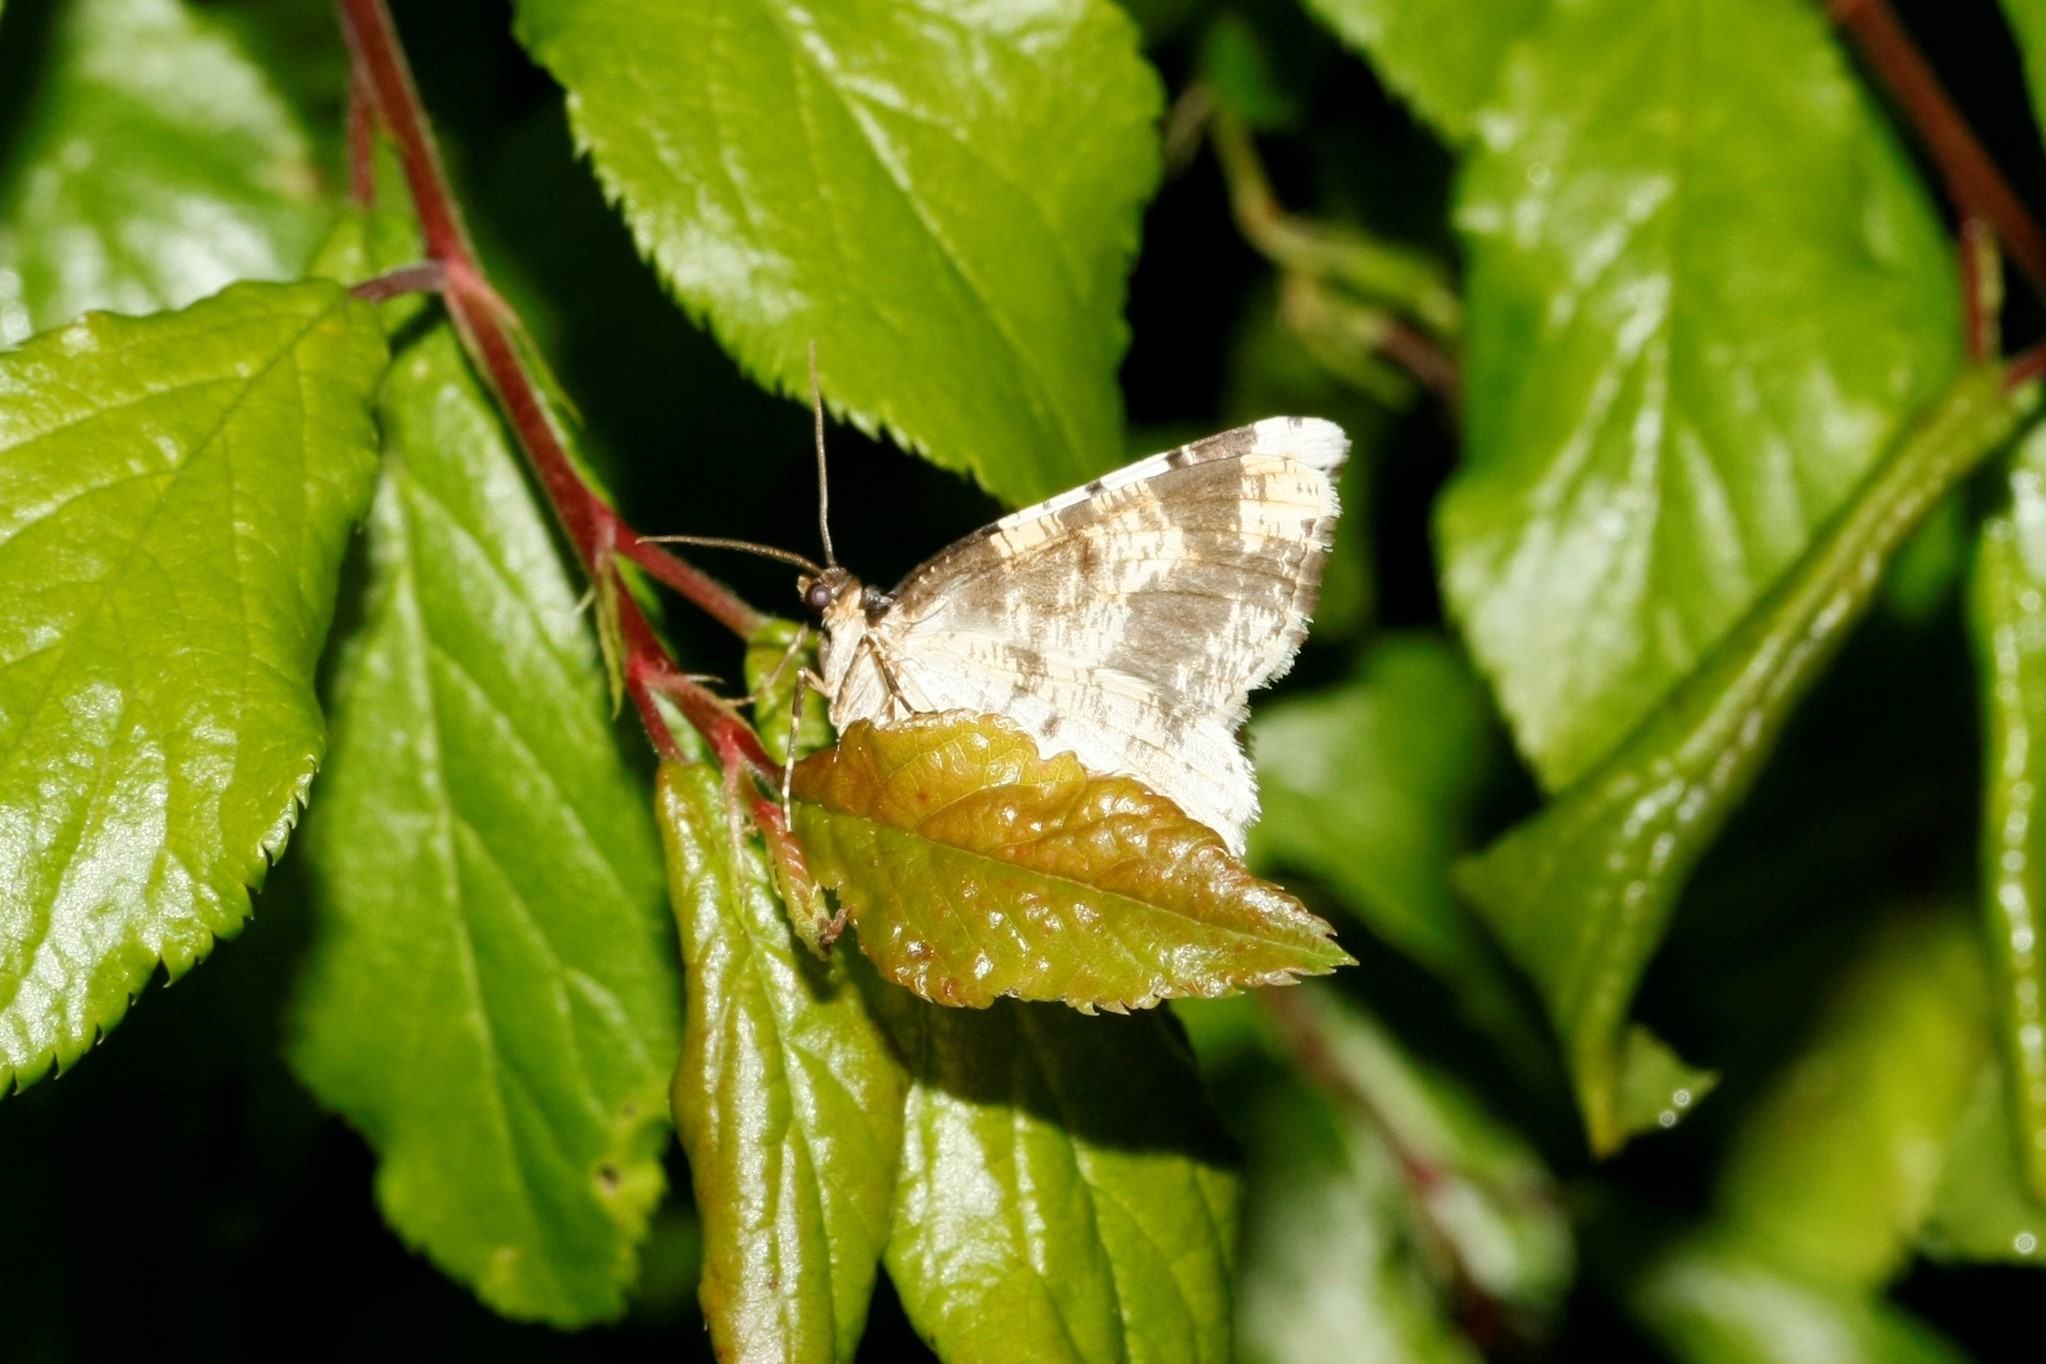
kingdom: Animalia
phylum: Arthropoda
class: Insecta
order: Lepidoptera
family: Geometridae
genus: Ligdia
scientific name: Ligdia adustata
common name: Scorched carpet
